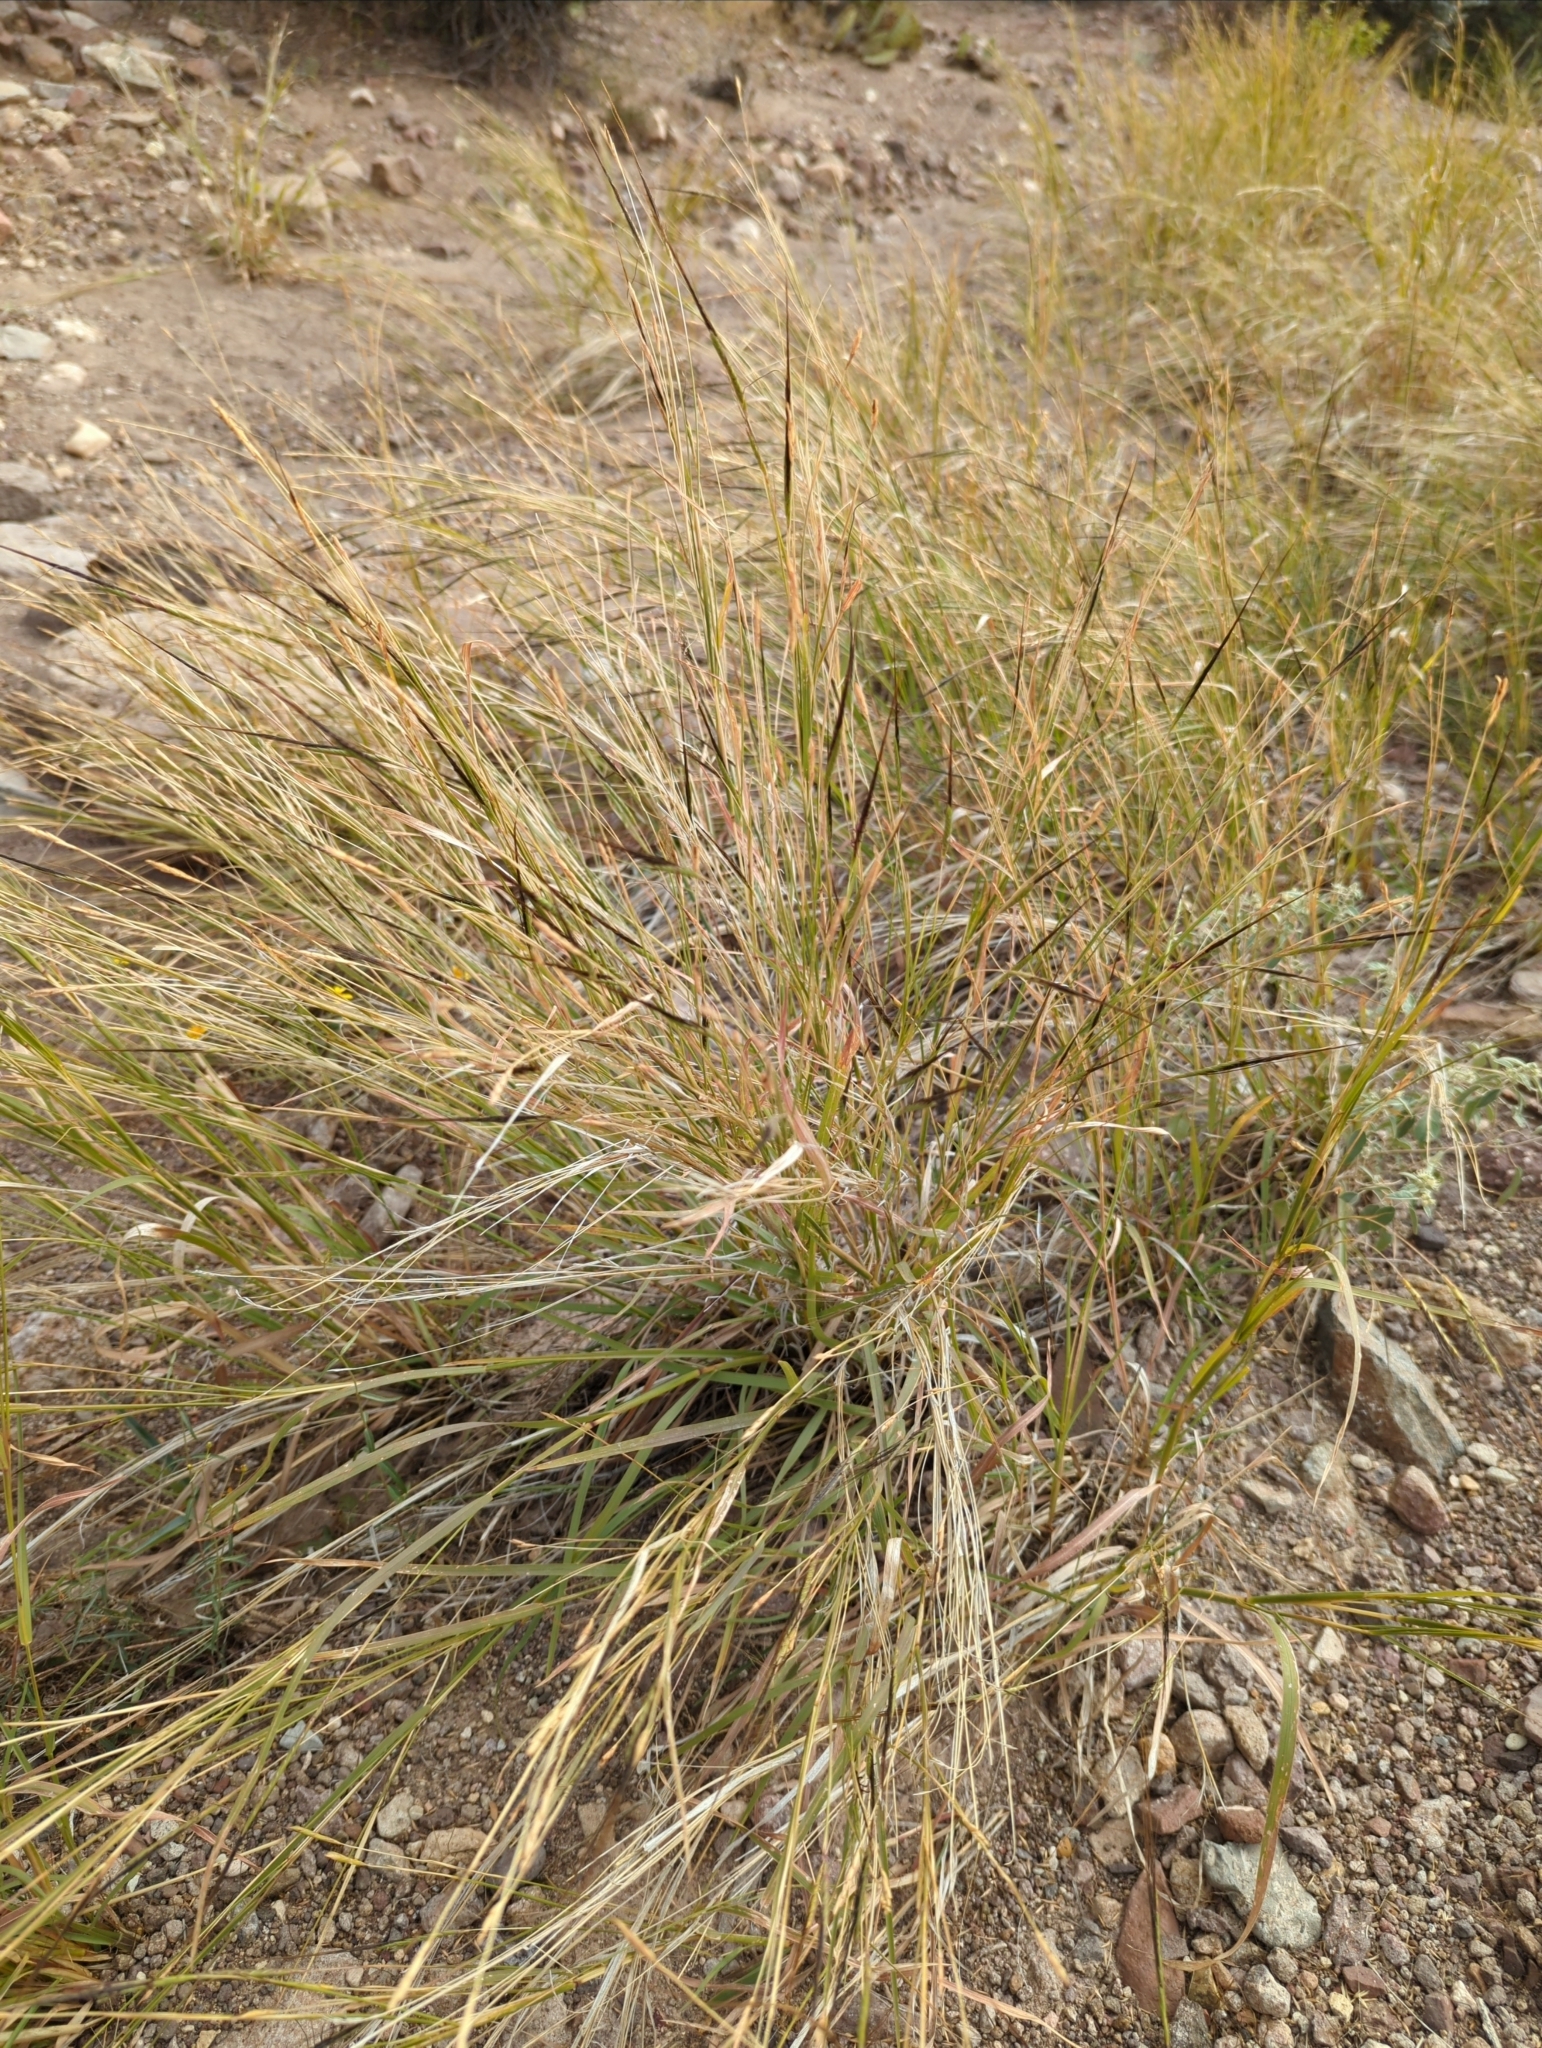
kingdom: Plantae
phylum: Tracheophyta
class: Liliopsida
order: Poales
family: Poaceae
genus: Heteropogon
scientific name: Heteropogon contortus
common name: Tanglehead
